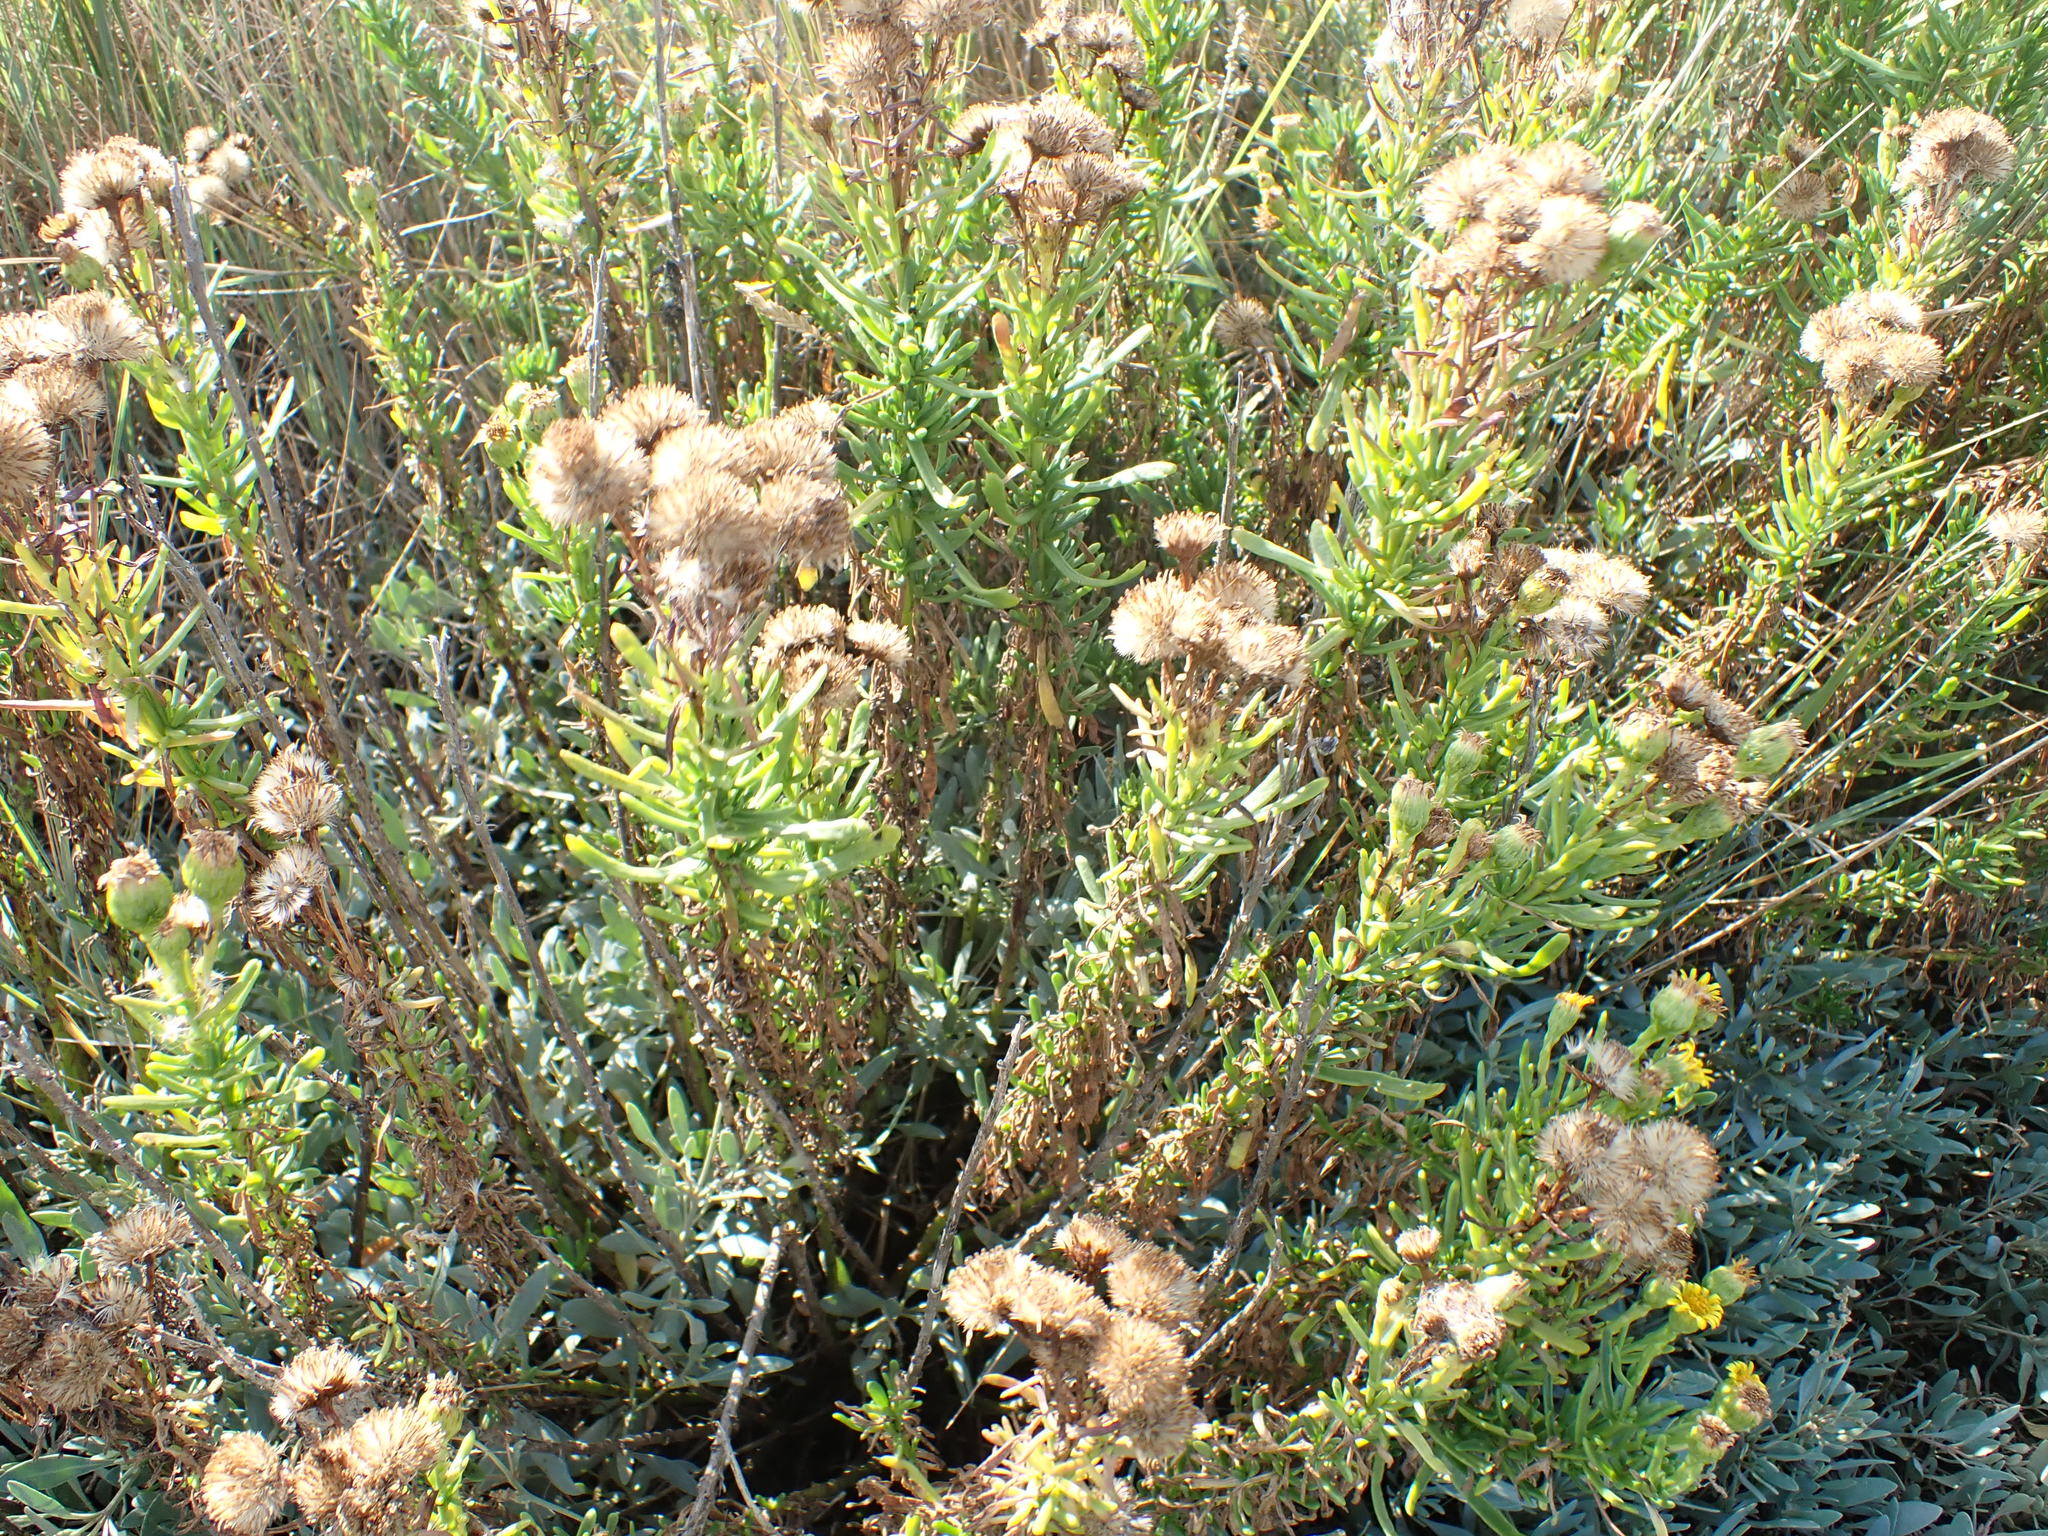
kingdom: Plantae
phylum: Tracheophyta
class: Magnoliopsida
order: Asterales
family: Asteraceae
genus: Limbarda
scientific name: Limbarda crithmoides
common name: Golden samphire
